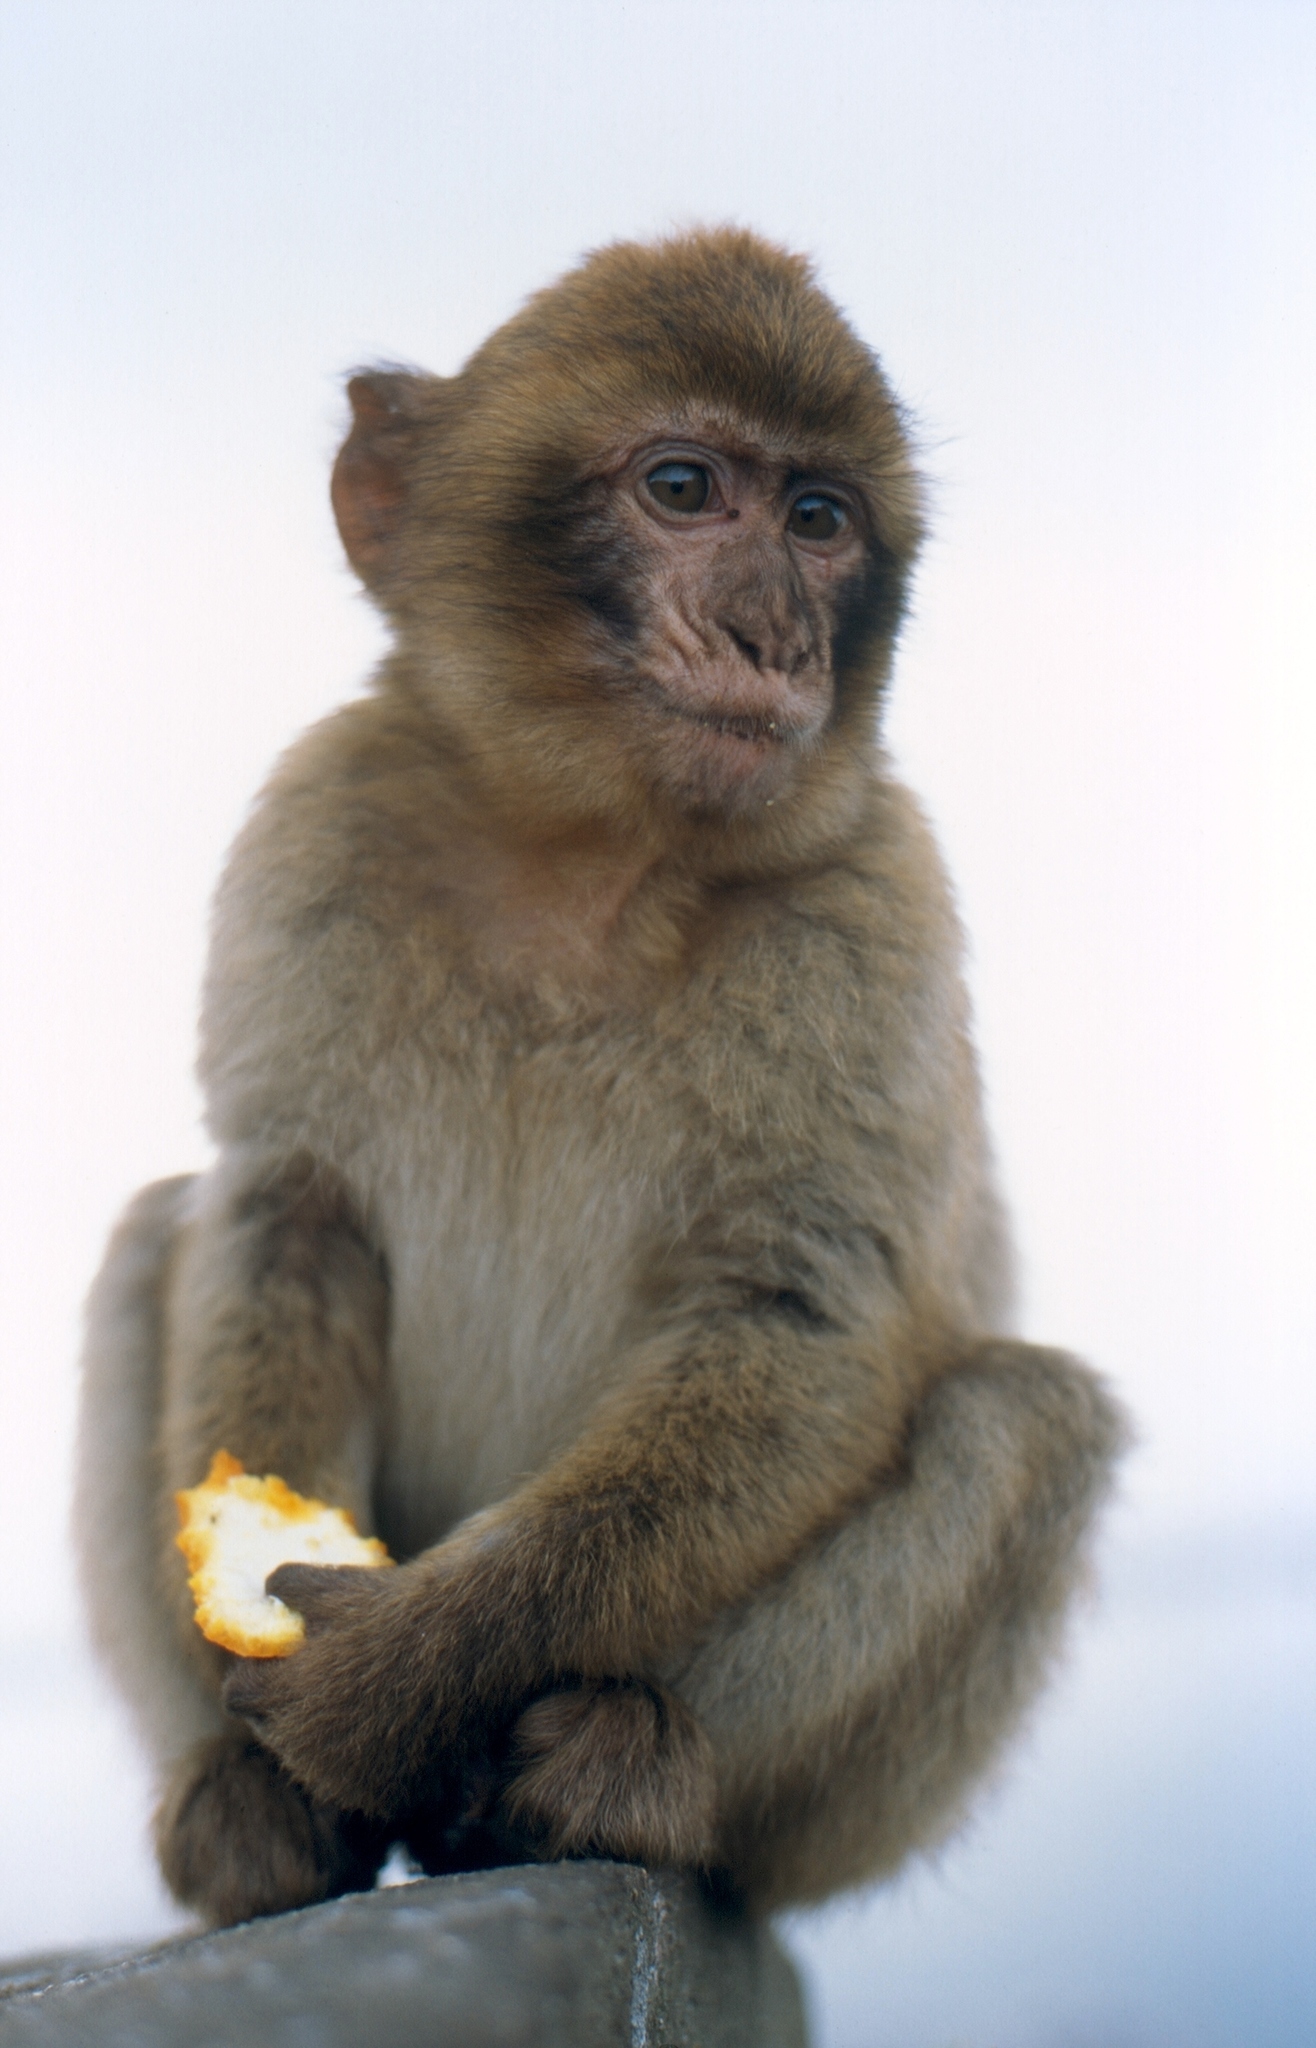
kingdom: Animalia
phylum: Chordata
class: Mammalia
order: Primates
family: Cercopithecidae
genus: Macaca
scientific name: Macaca sylvanus
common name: Barbary macaque
